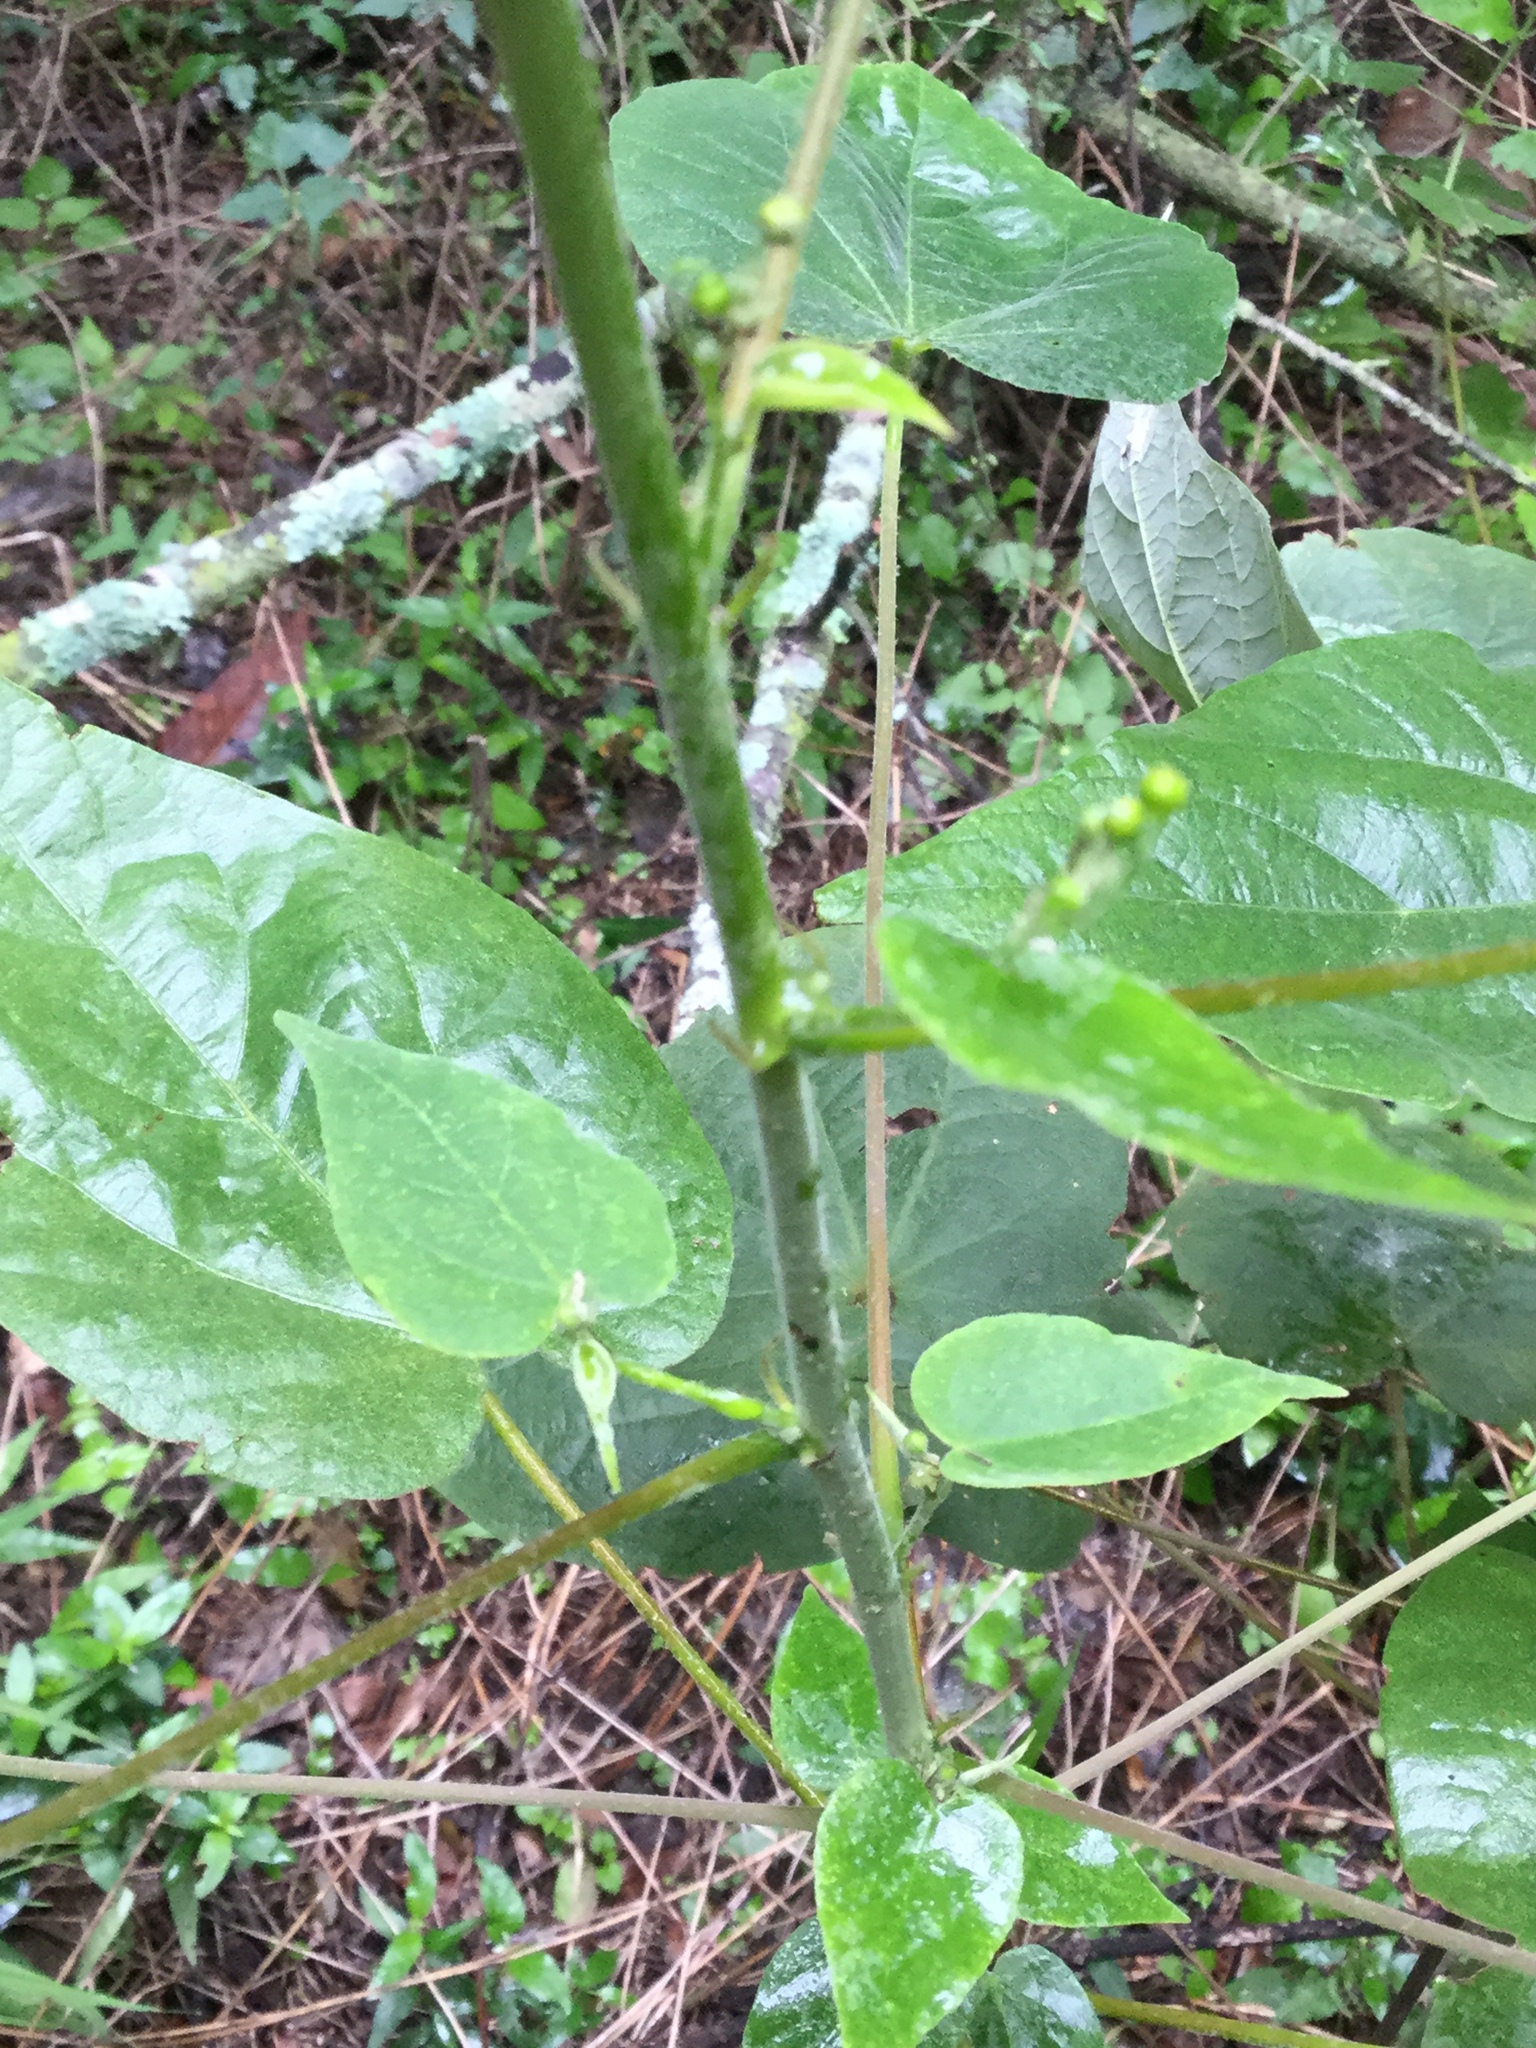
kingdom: Plantae
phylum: Tracheophyta
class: Magnoliopsida
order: Malvales
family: Malvaceae
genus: Wissadula
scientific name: Wissadula amplissima
